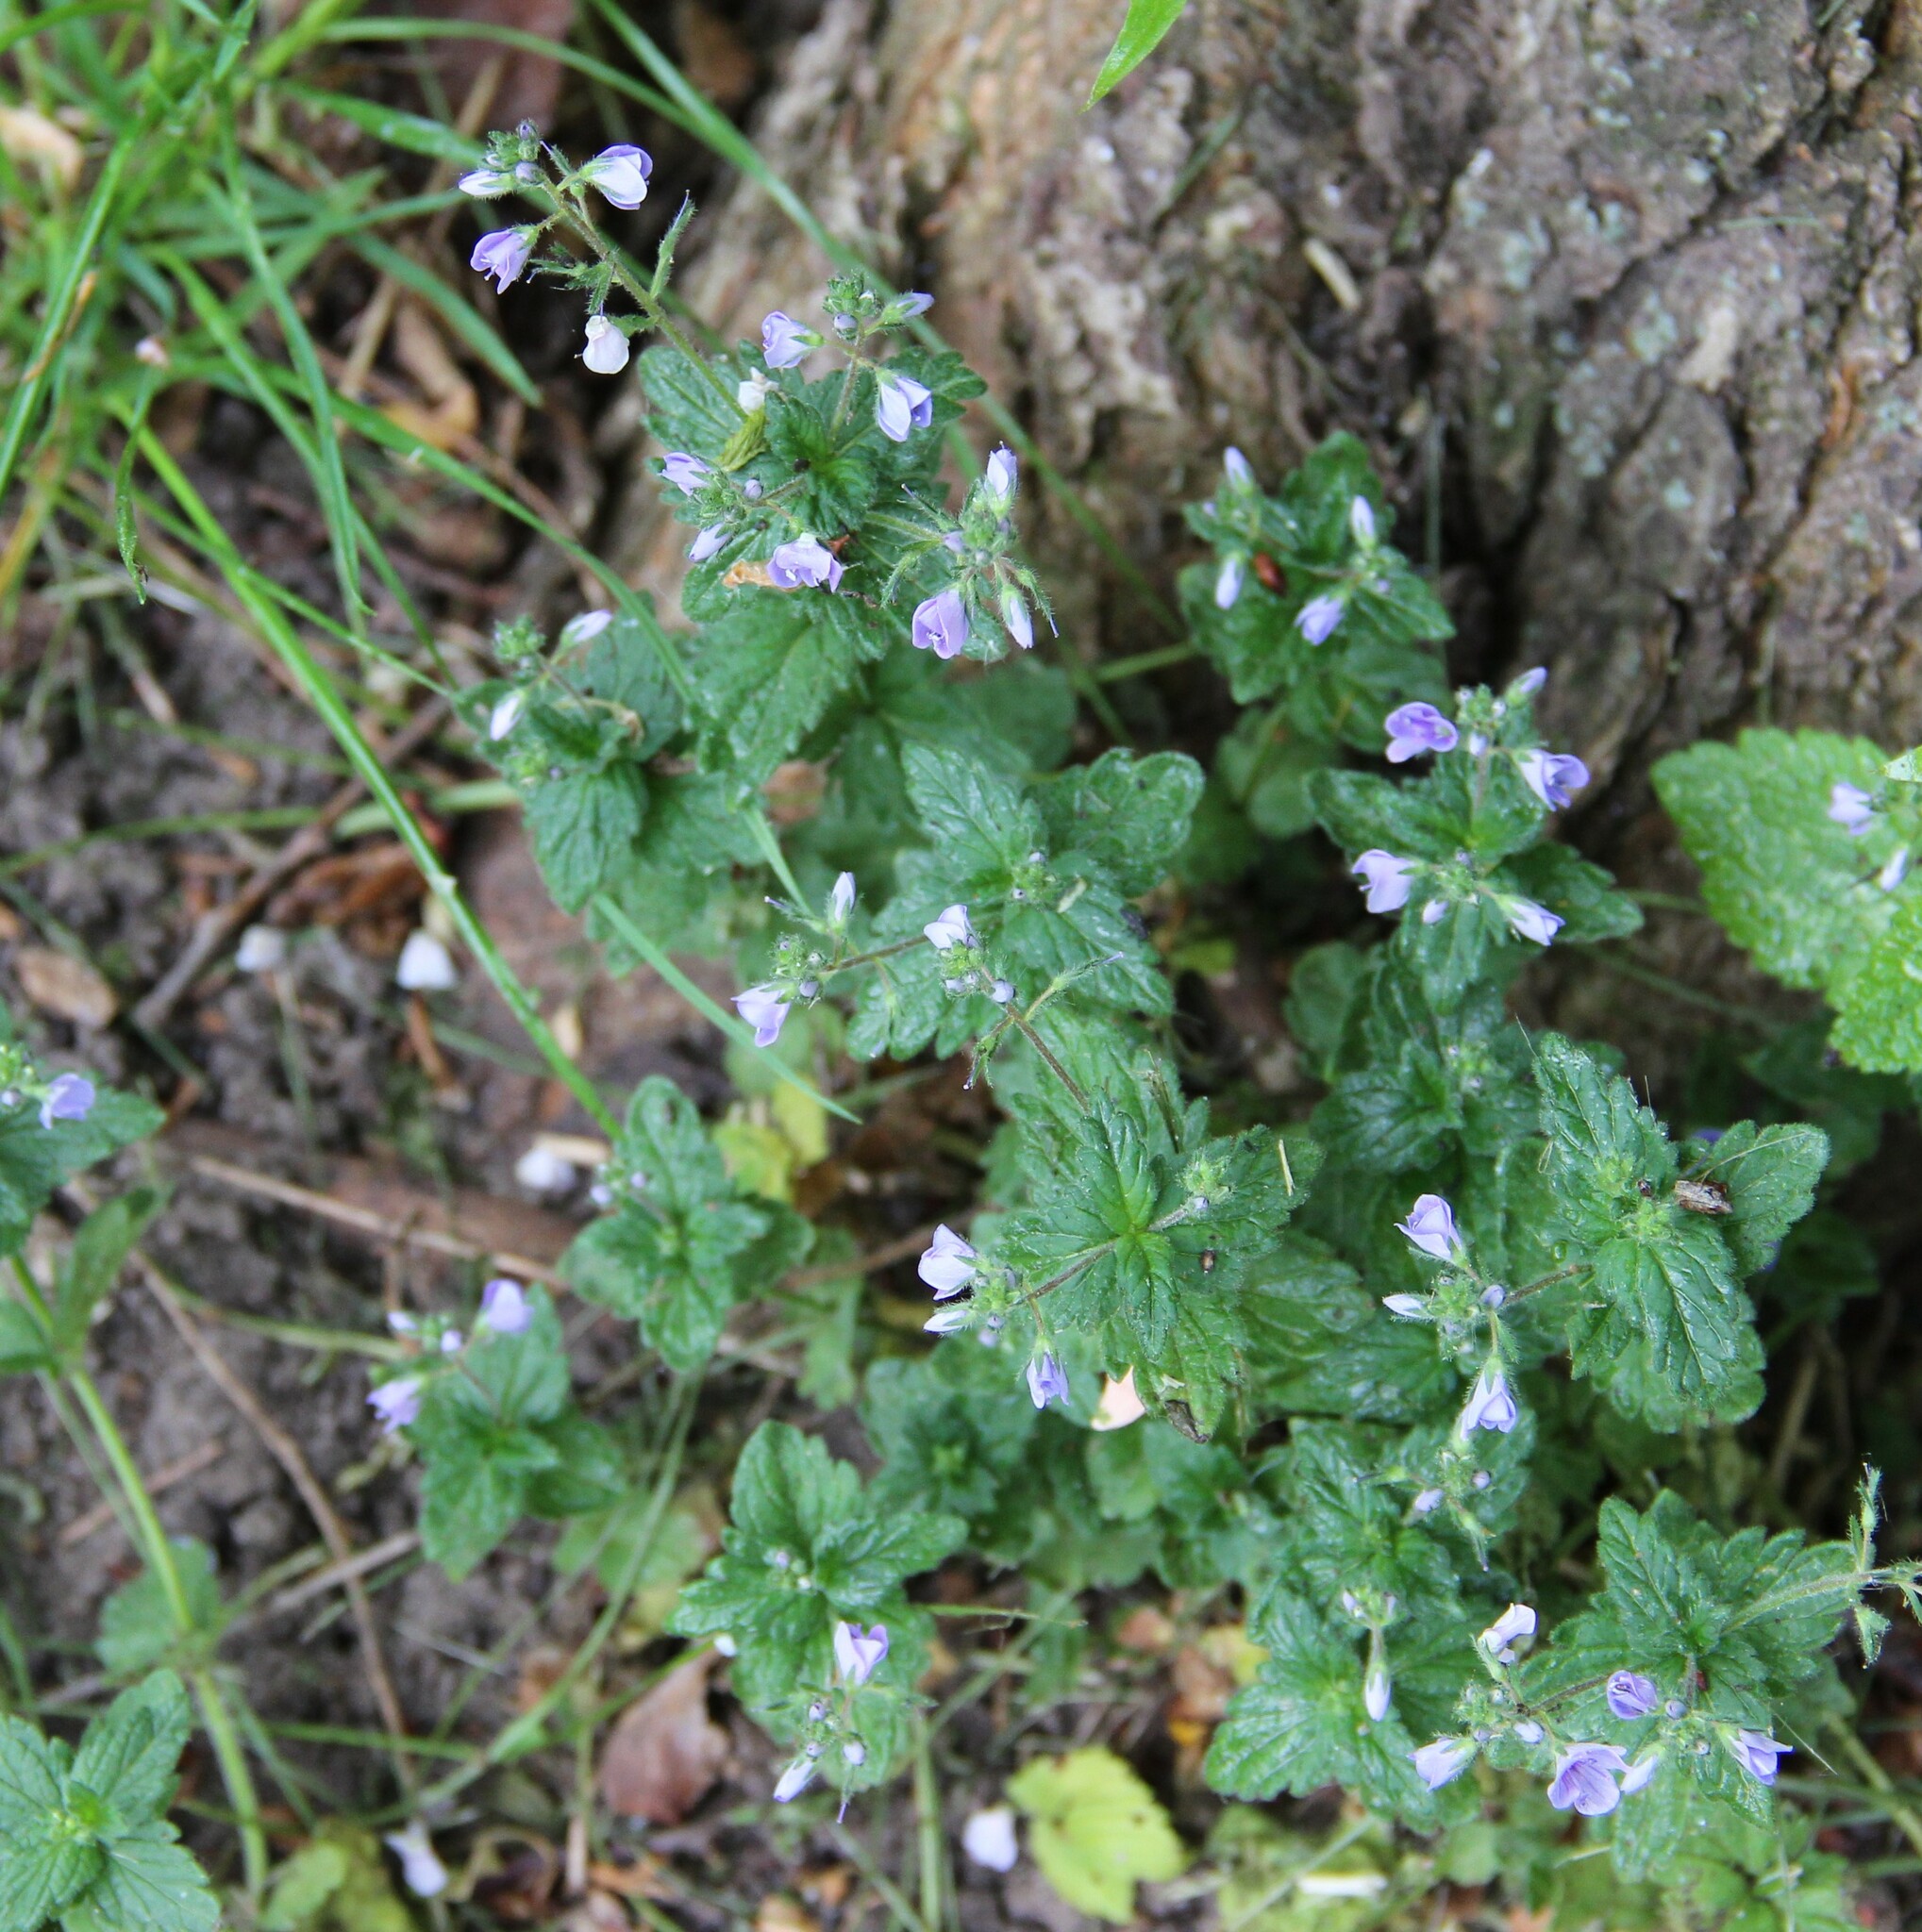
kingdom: Plantae
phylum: Tracheophyta
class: Magnoliopsida
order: Lamiales
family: Plantaginaceae
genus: Veronica
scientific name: Veronica chamaedrys
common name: Germander speedwell
